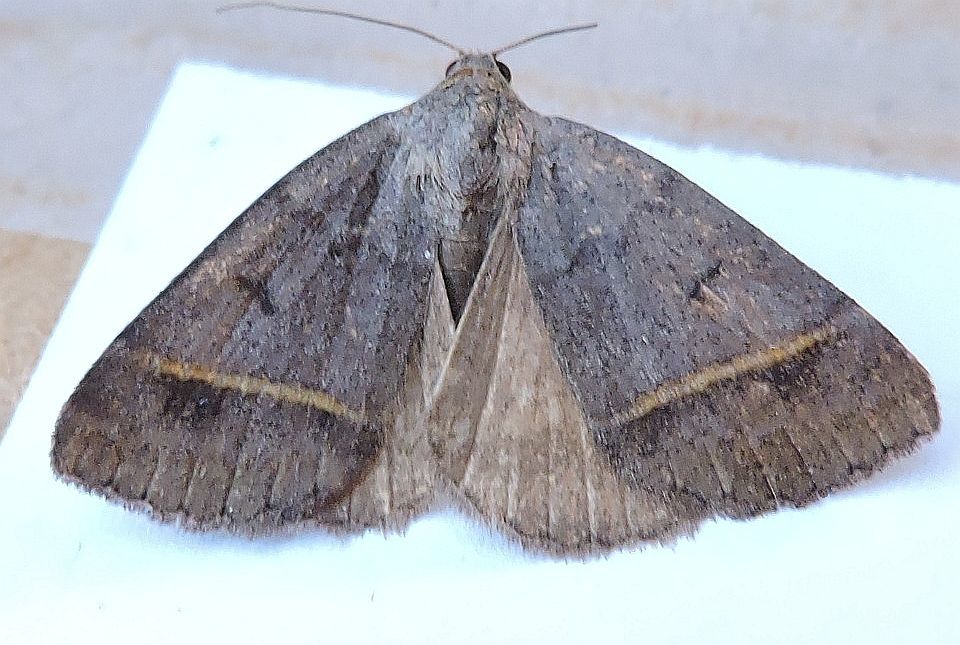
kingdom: Animalia
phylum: Arthropoda
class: Insecta
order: Lepidoptera
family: Erebidae
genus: Ptichodis
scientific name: Ptichodis bucetum
